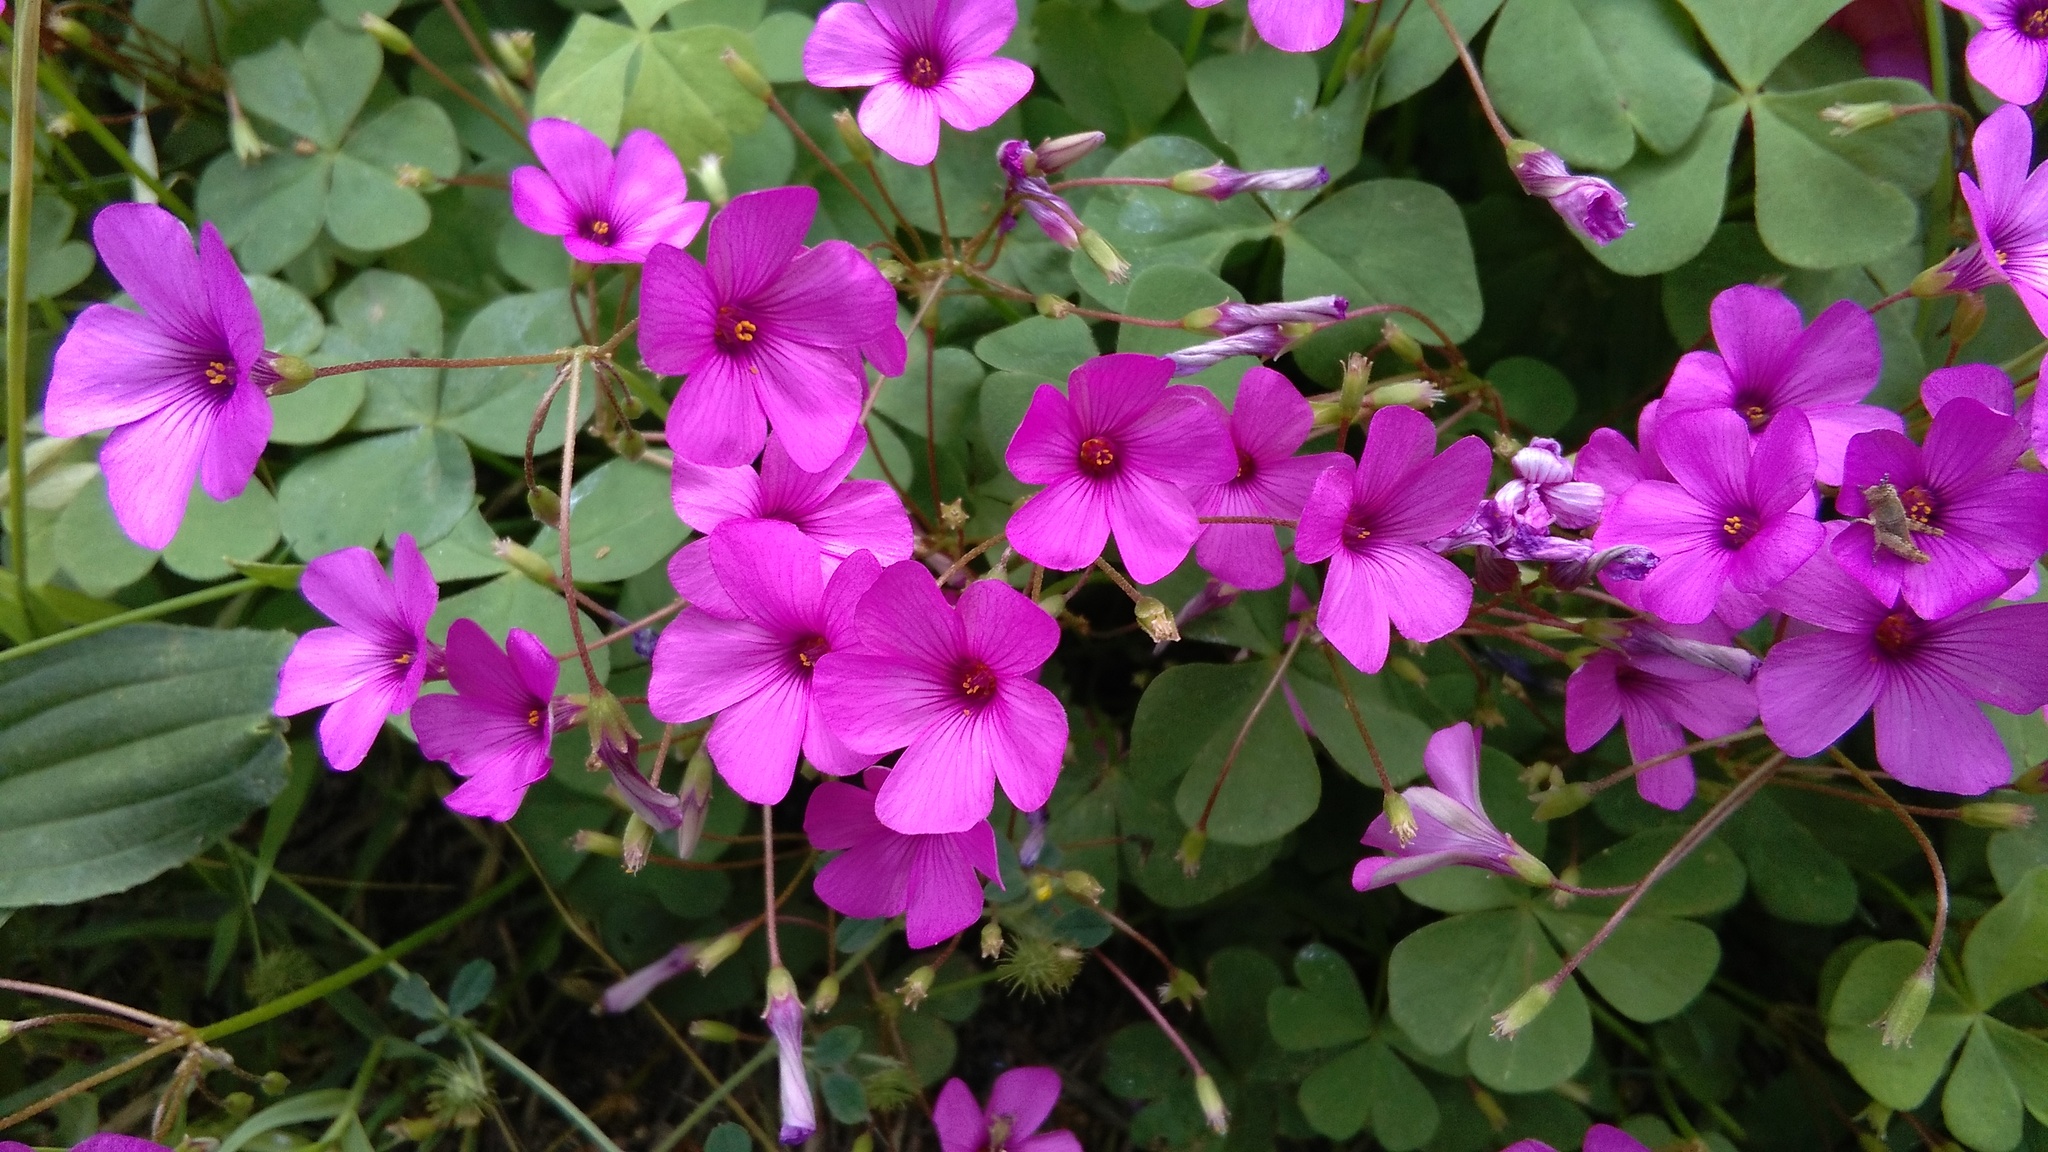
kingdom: Plantae
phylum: Tracheophyta
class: Magnoliopsida
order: Oxalidales
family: Oxalidaceae
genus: Oxalis
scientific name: Oxalis articulata
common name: Pink-sorrel
